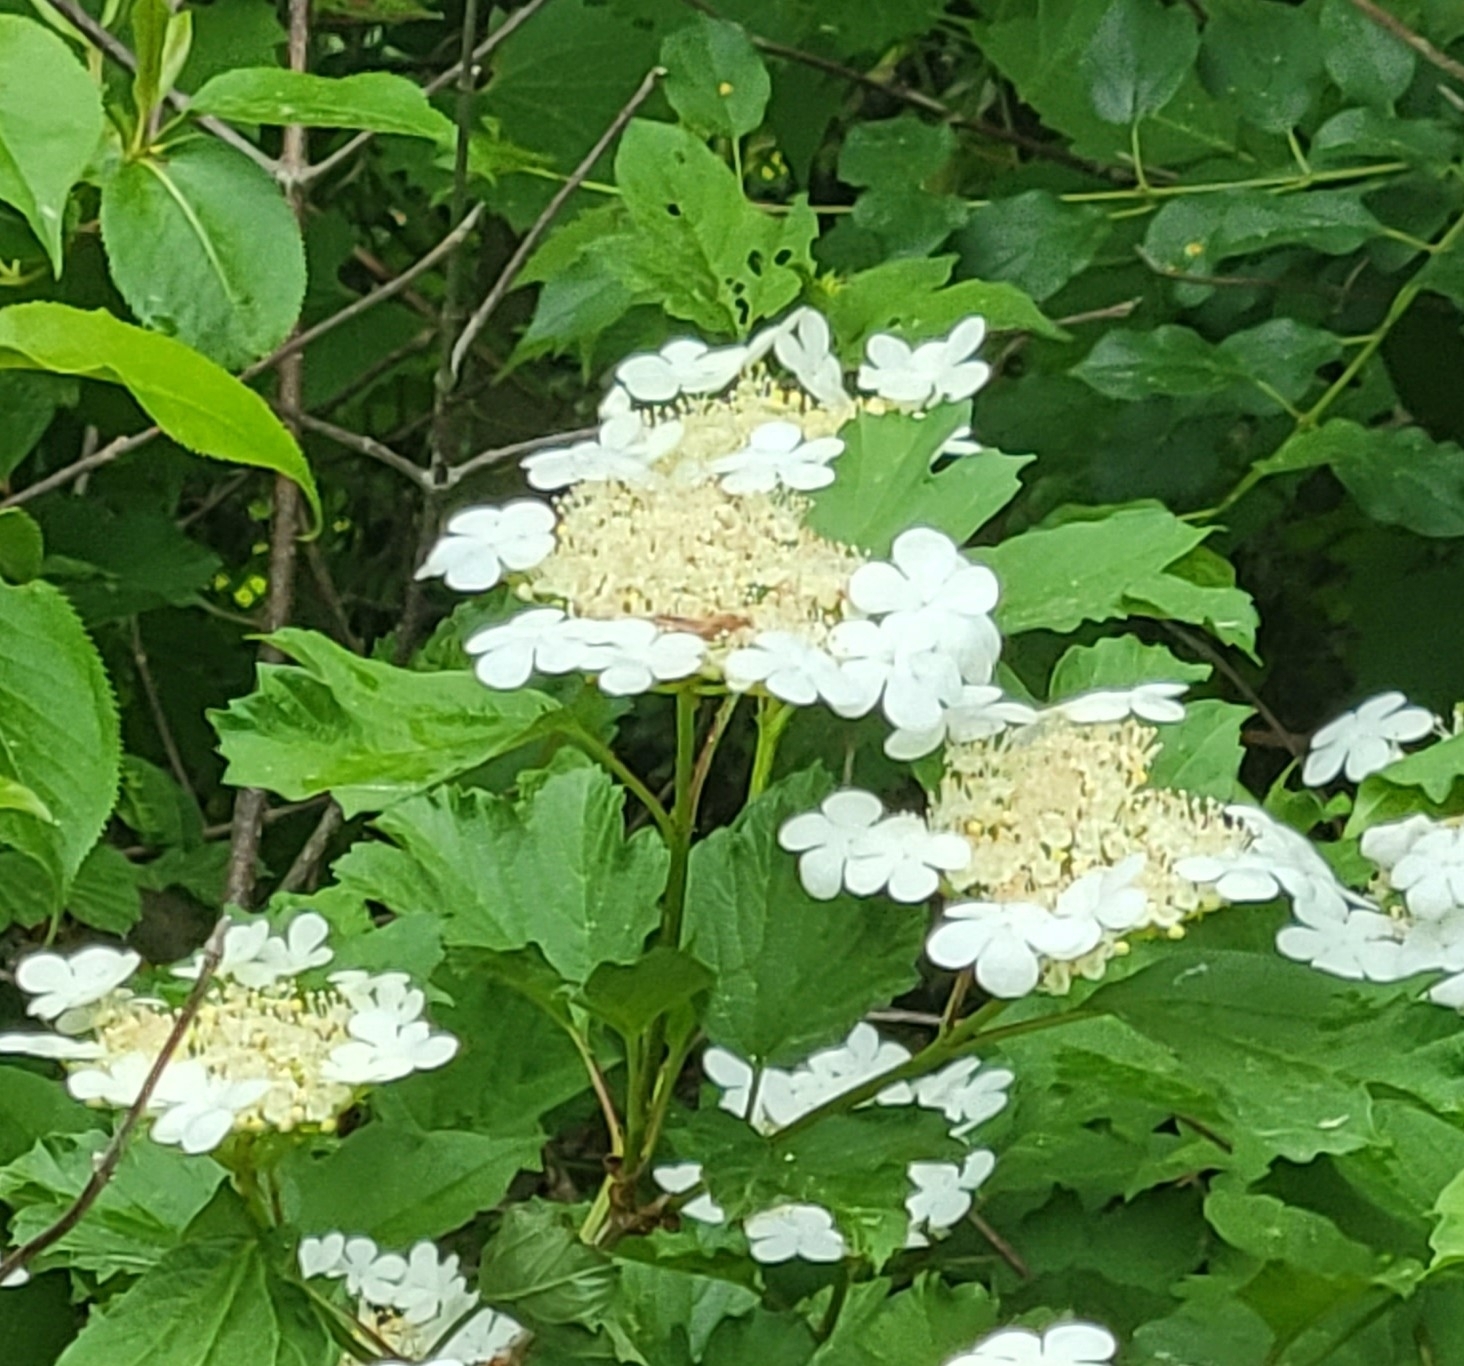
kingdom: Plantae
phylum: Tracheophyta
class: Magnoliopsida
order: Dipsacales
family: Viburnaceae
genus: Viburnum
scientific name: Viburnum opulus
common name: Guelder-rose
